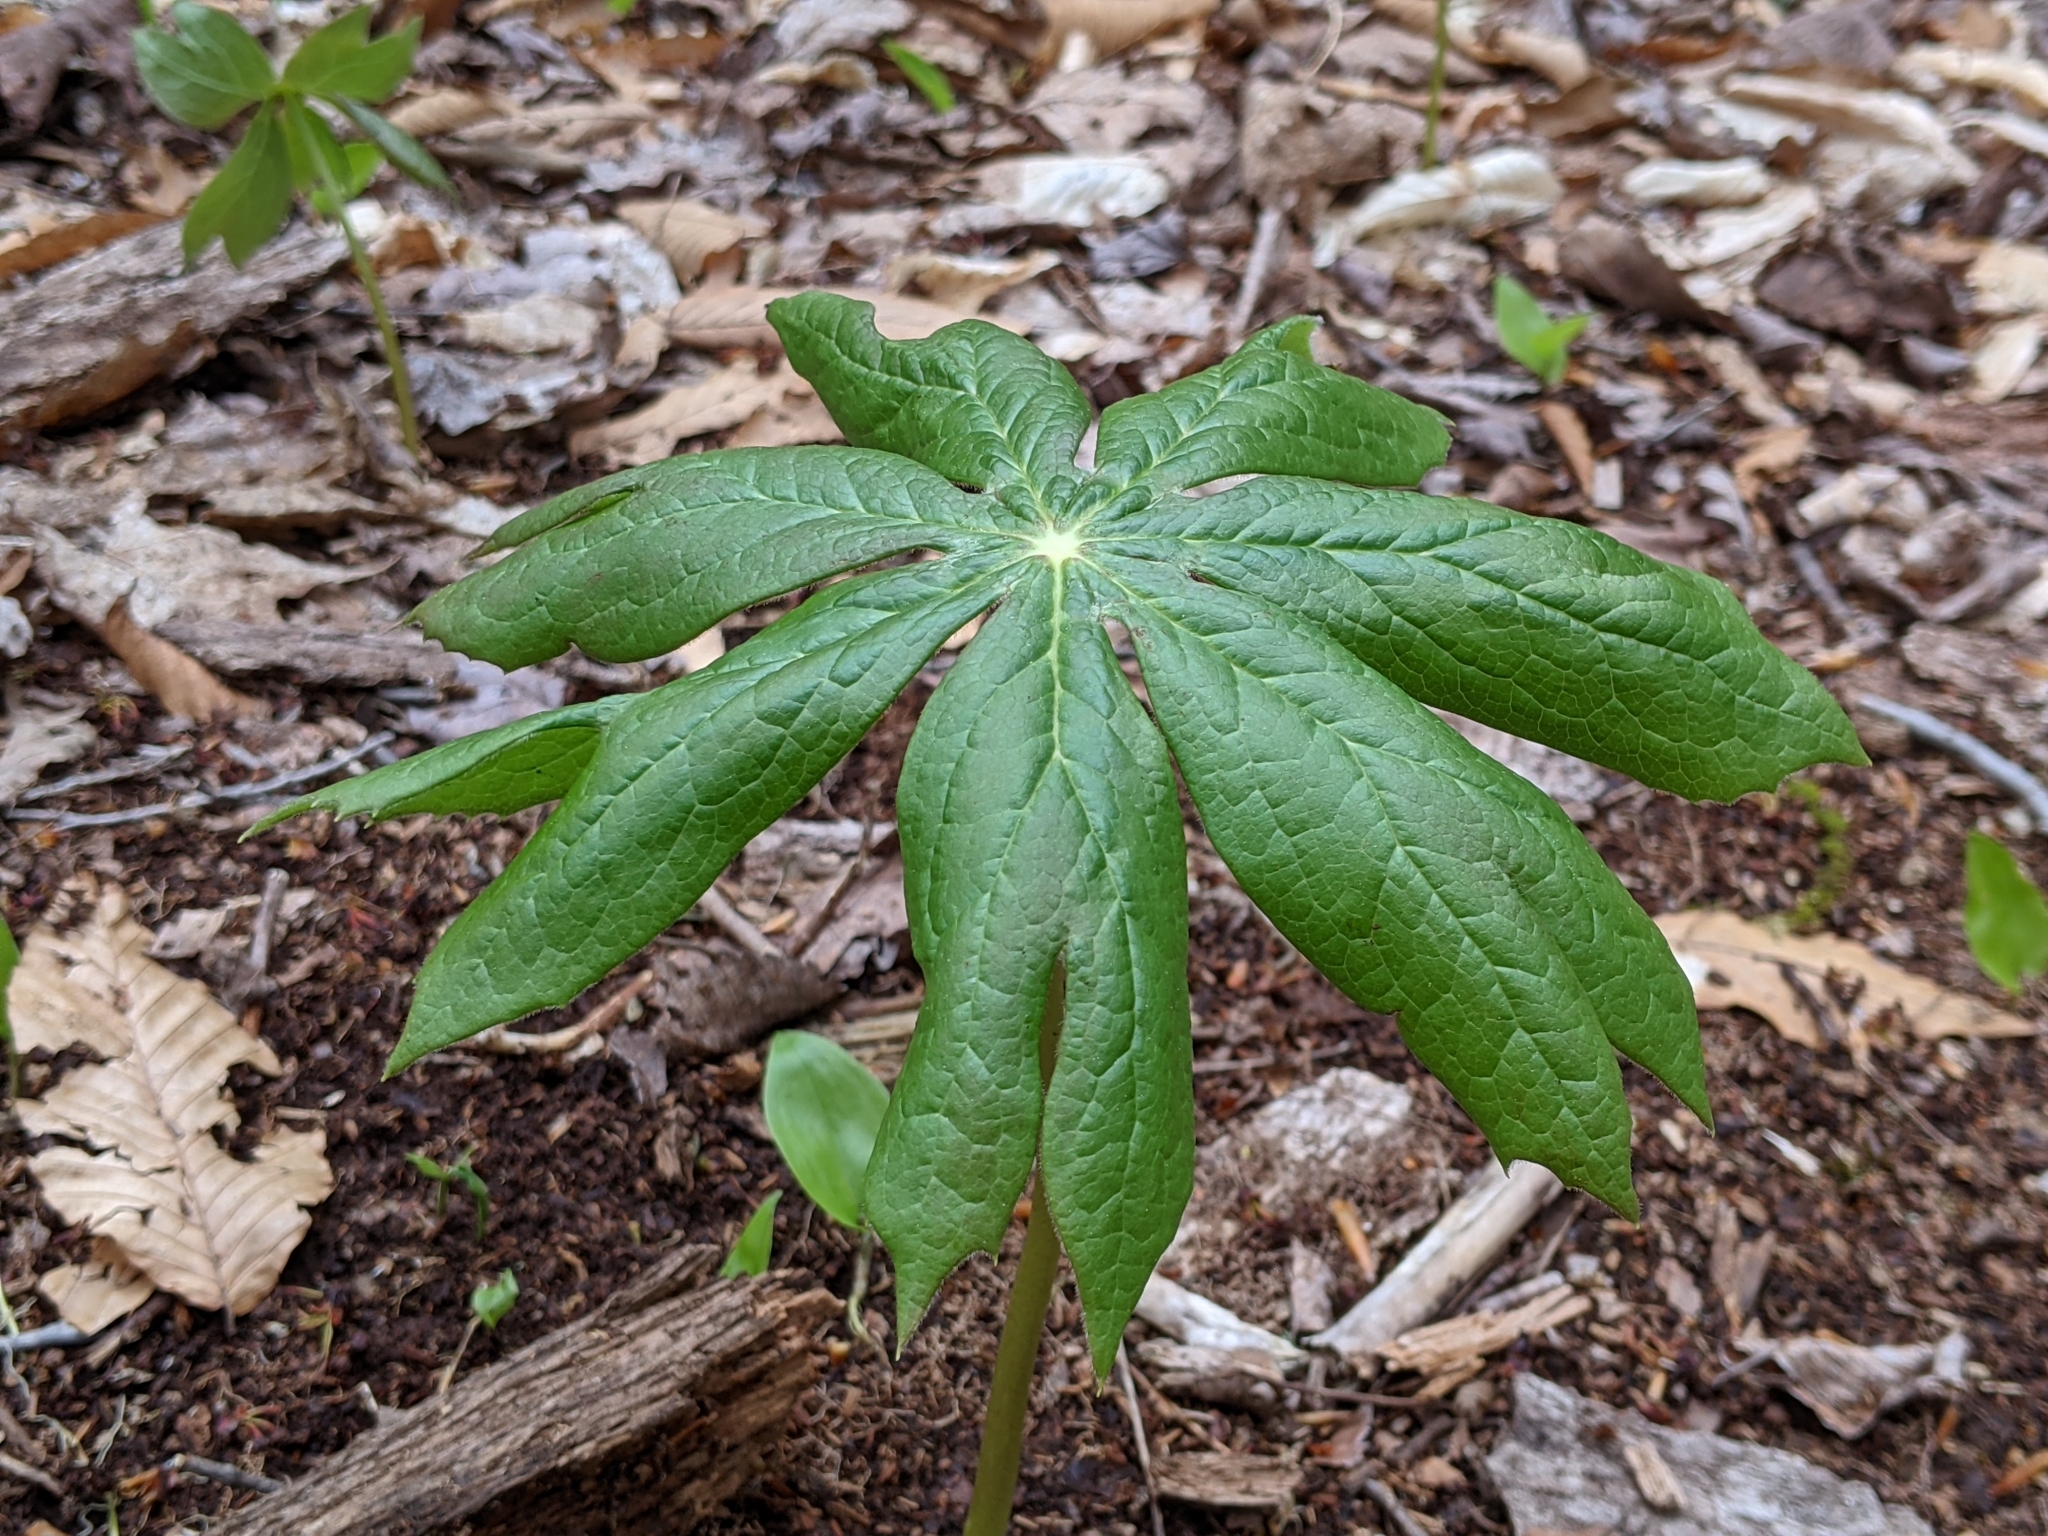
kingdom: Plantae
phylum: Tracheophyta
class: Magnoliopsida
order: Ranunculales
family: Berberidaceae
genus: Podophyllum
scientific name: Podophyllum peltatum
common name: Wild mandrake
